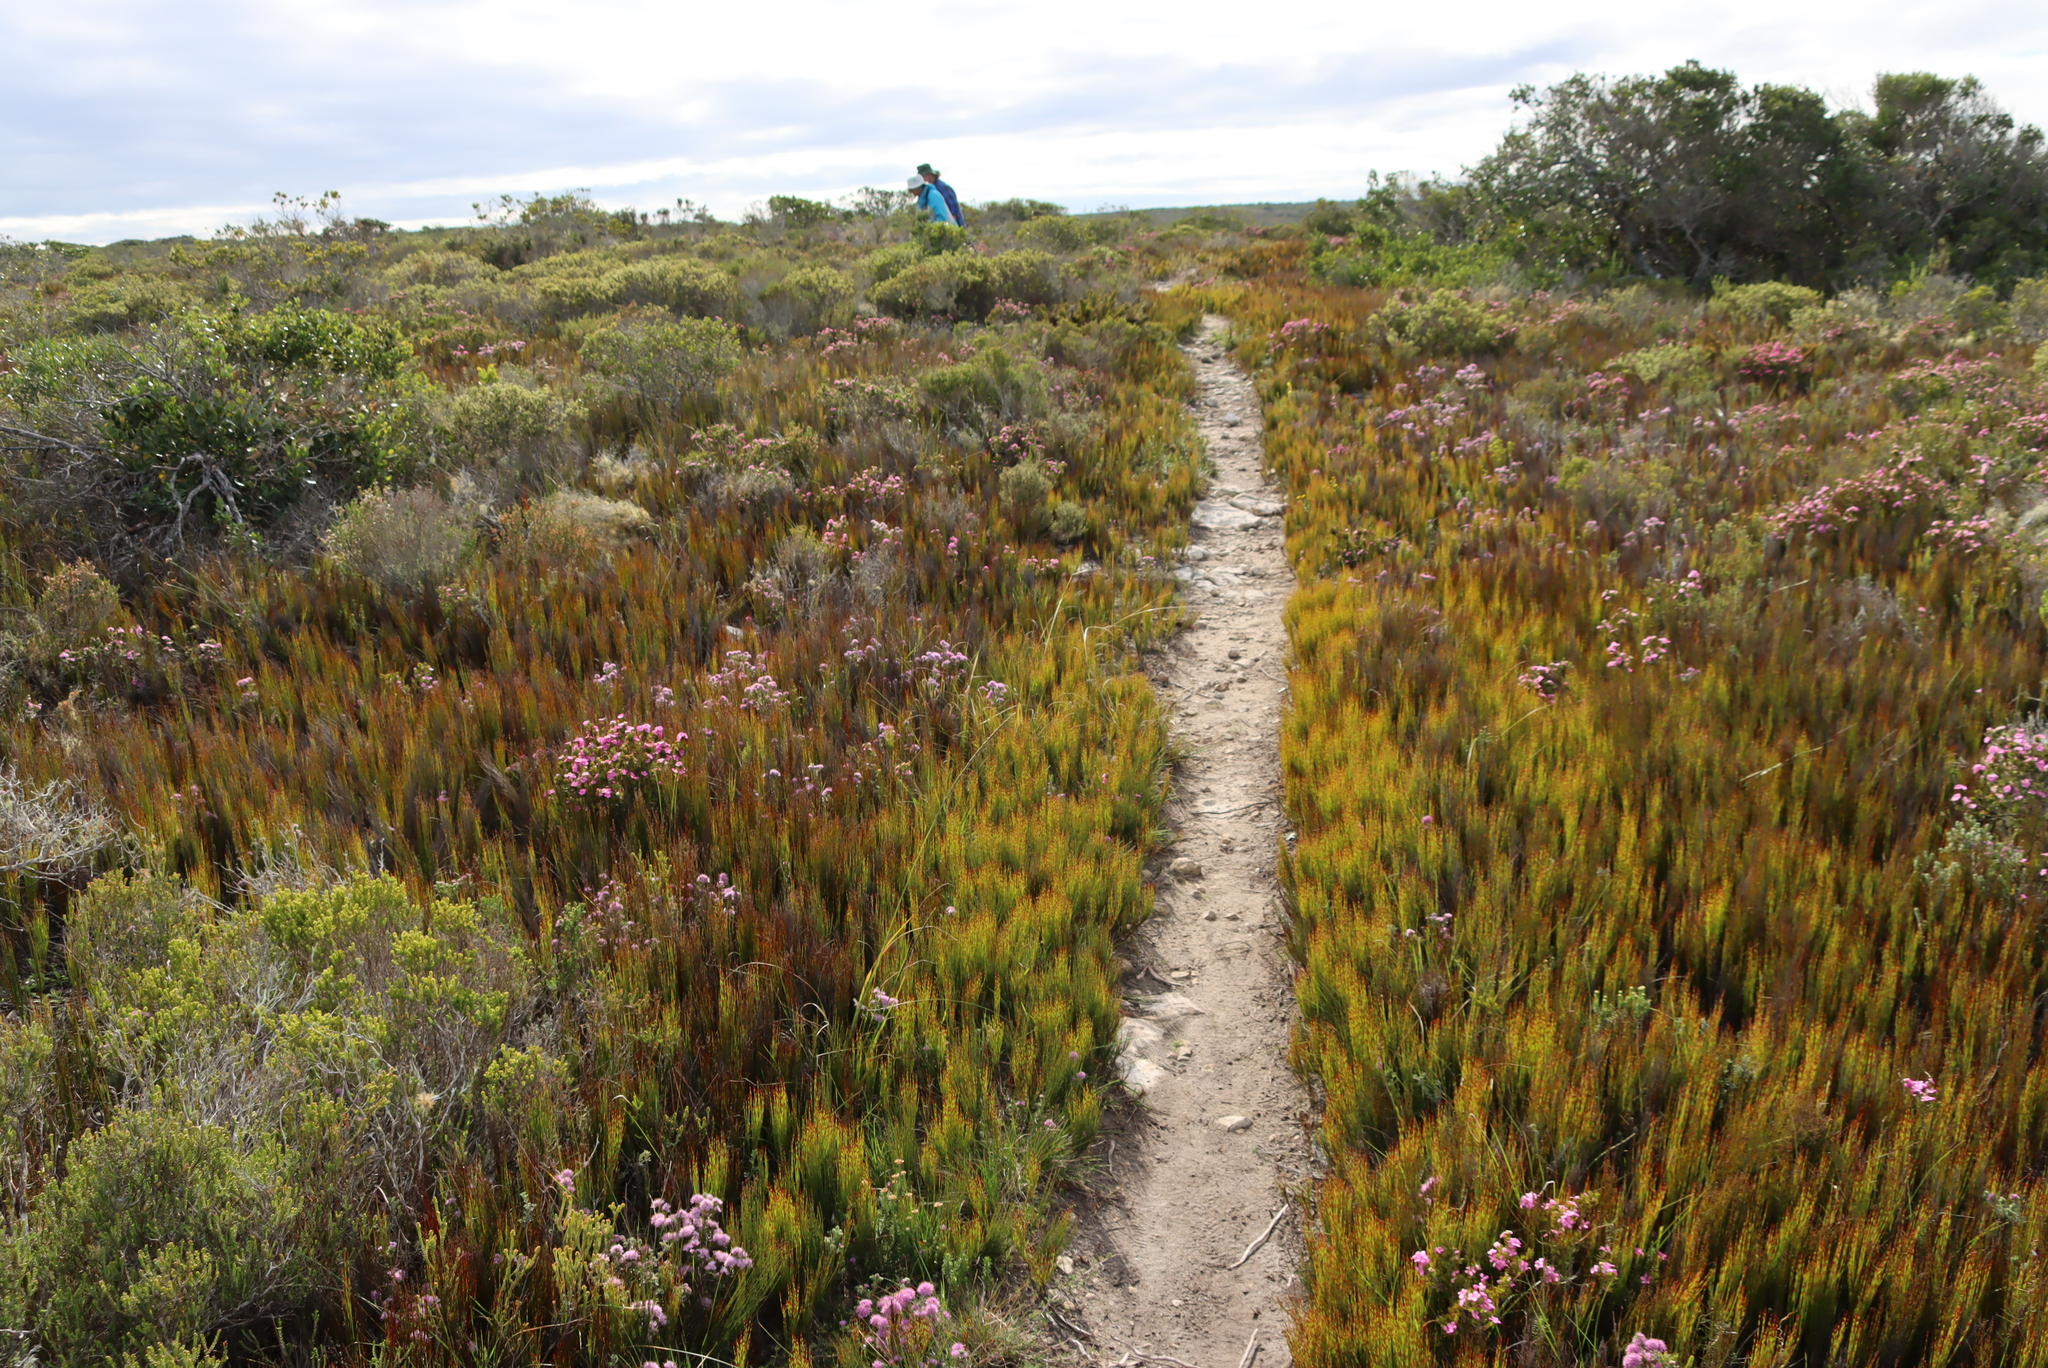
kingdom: Plantae
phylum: Tracheophyta
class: Liliopsida
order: Poales
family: Restionaceae
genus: Elegia
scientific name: Elegia microcarpa
